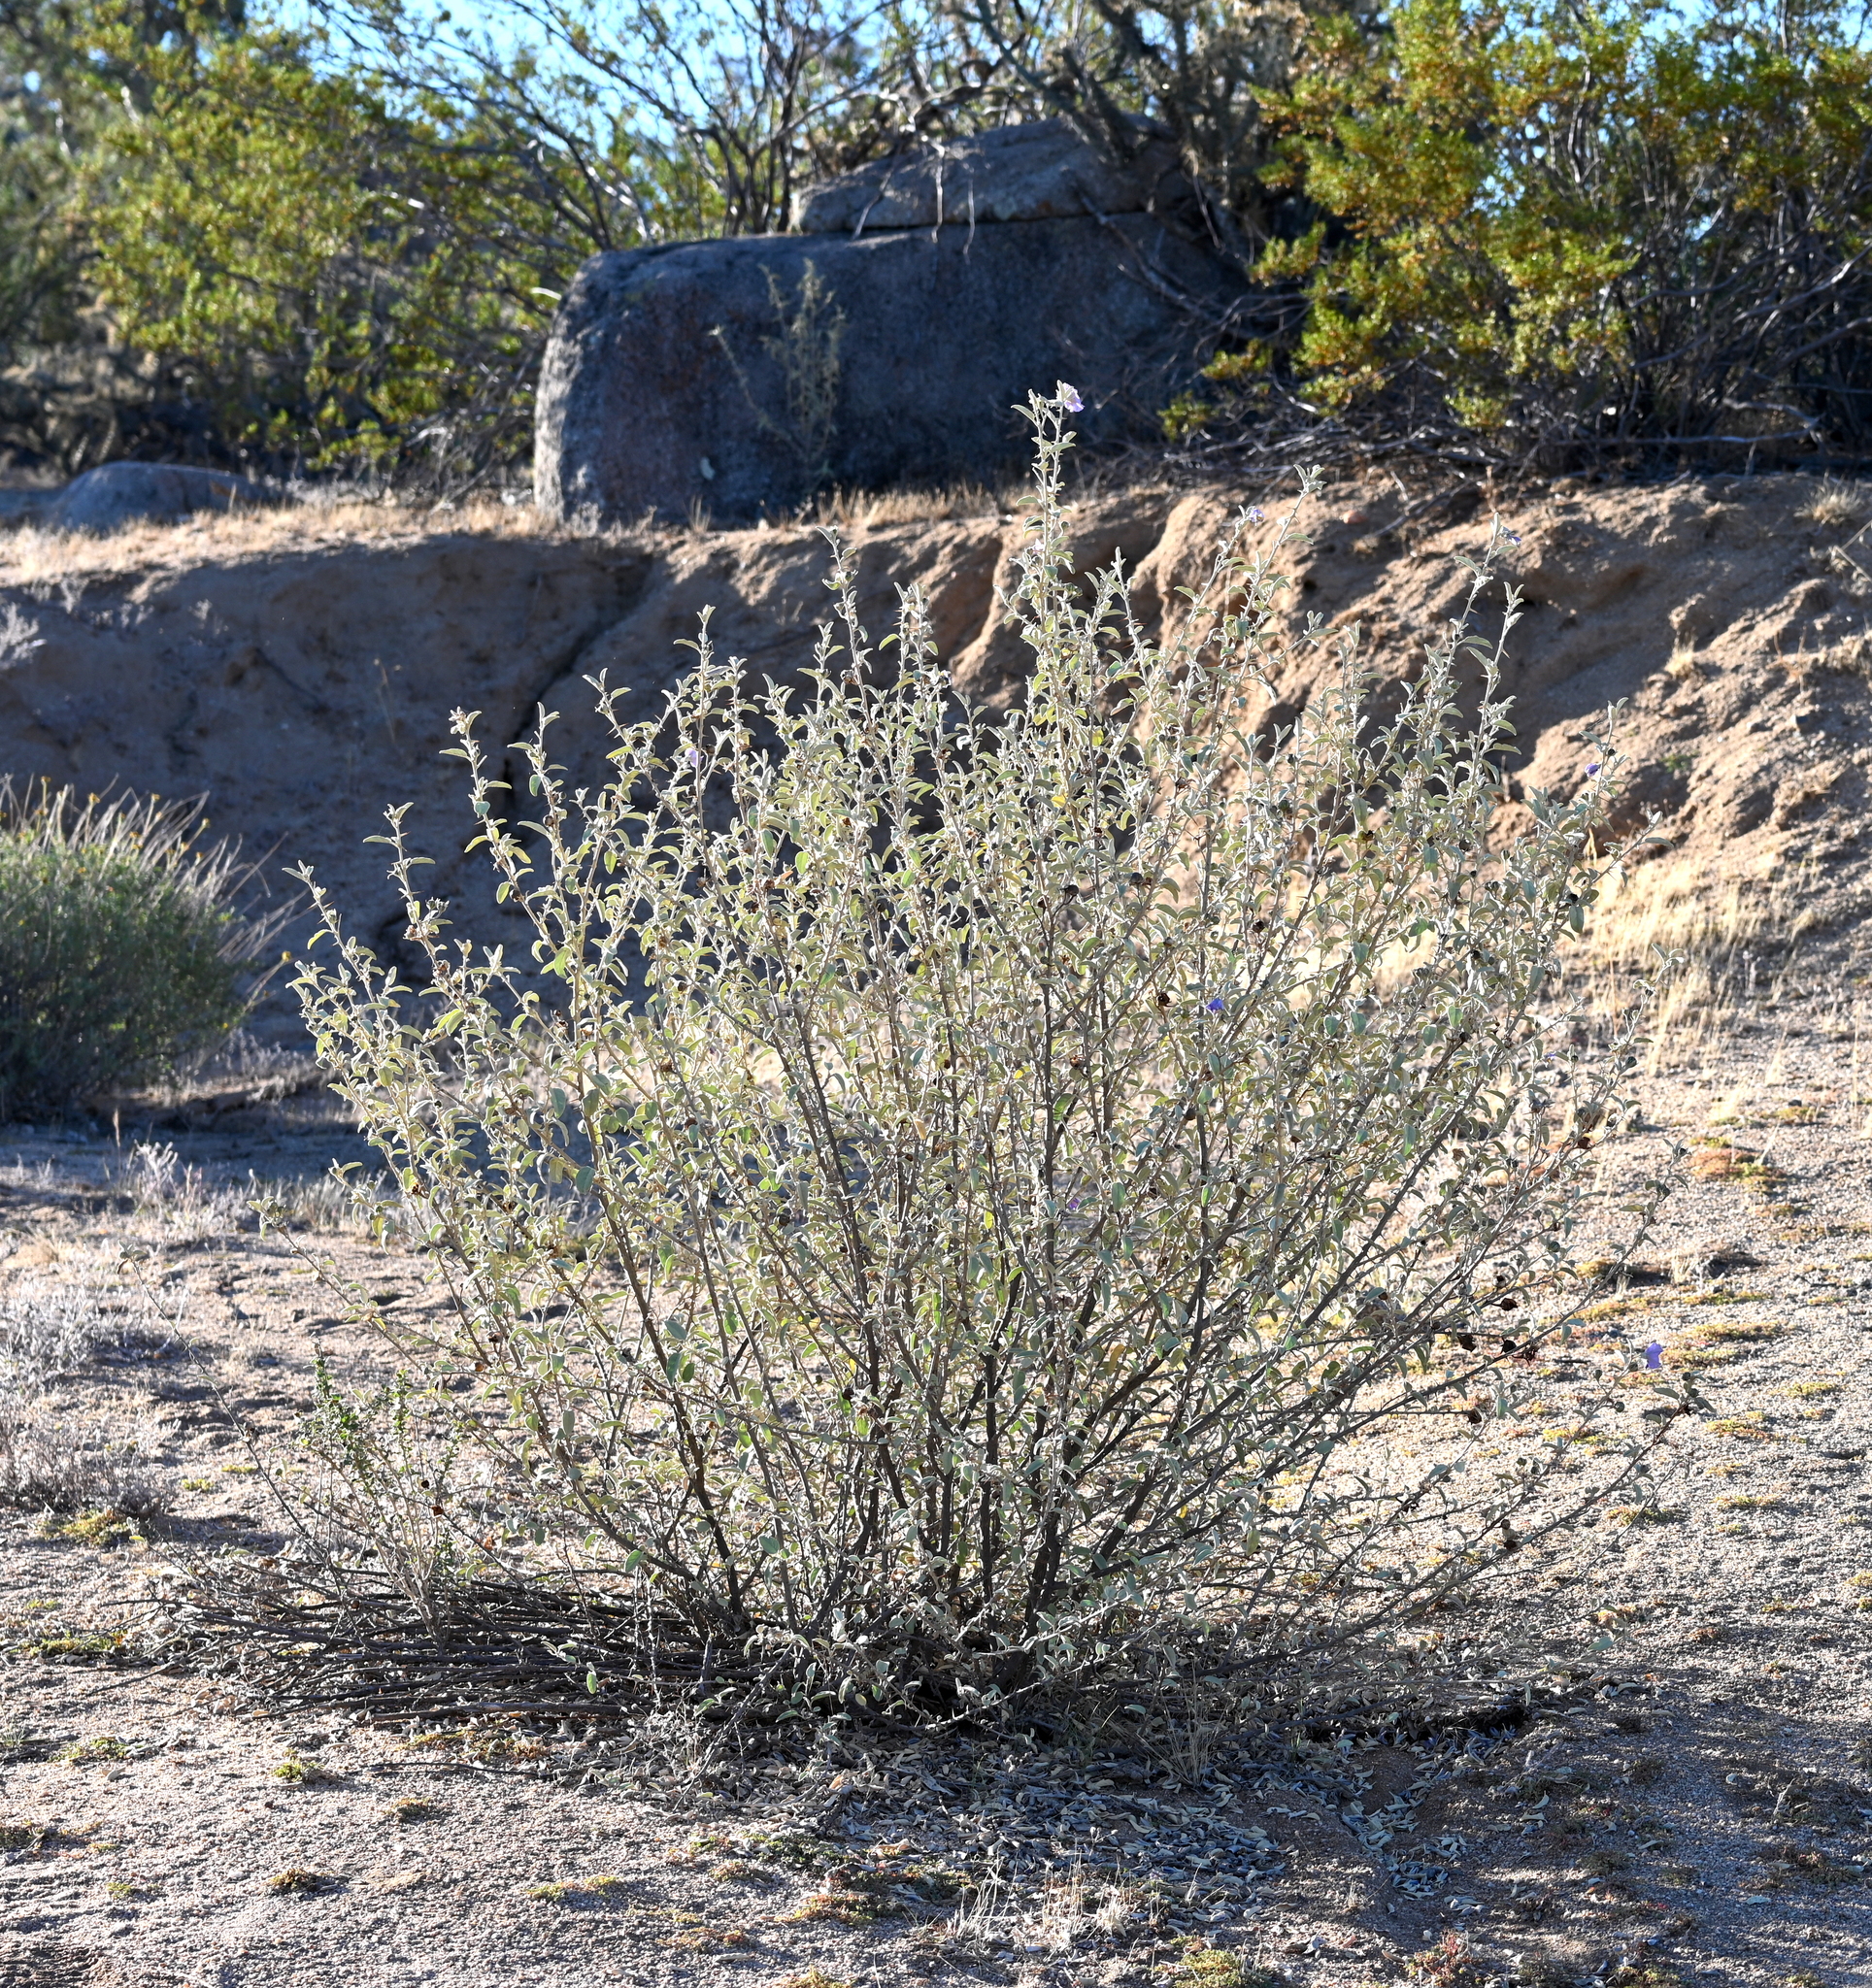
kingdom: Plantae
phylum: Tracheophyta
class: Magnoliopsida
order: Solanales
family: Solanaceae
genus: Solanum
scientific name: Solanum hindsianum
